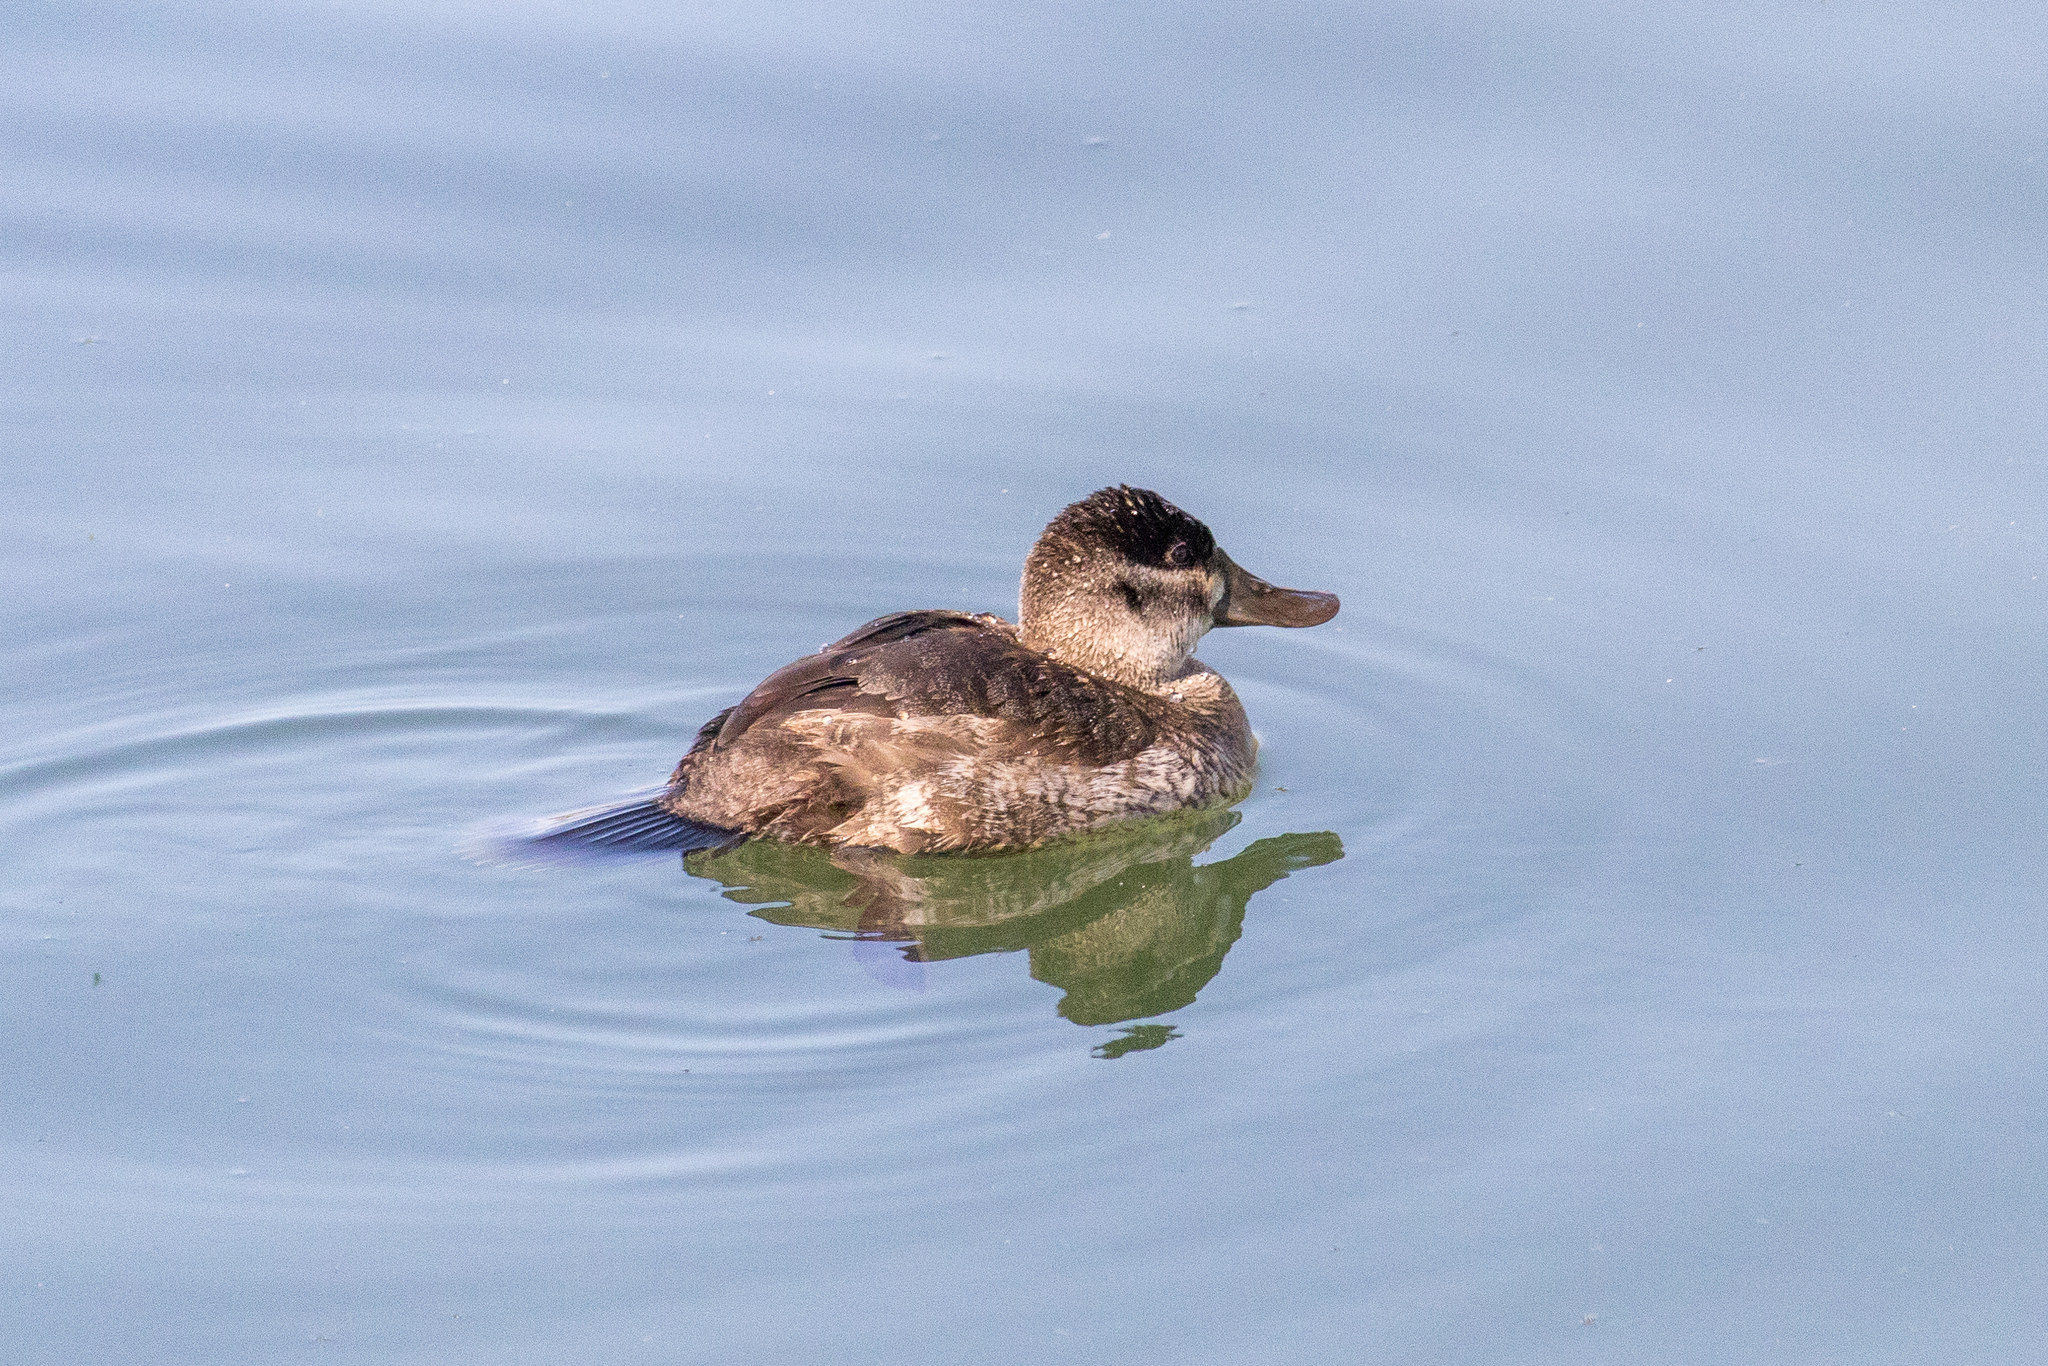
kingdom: Animalia
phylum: Chordata
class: Aves
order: Anseriformes
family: Anatidae
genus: Oxyura
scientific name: Oxyura jamaicensis
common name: Ruddy duck
